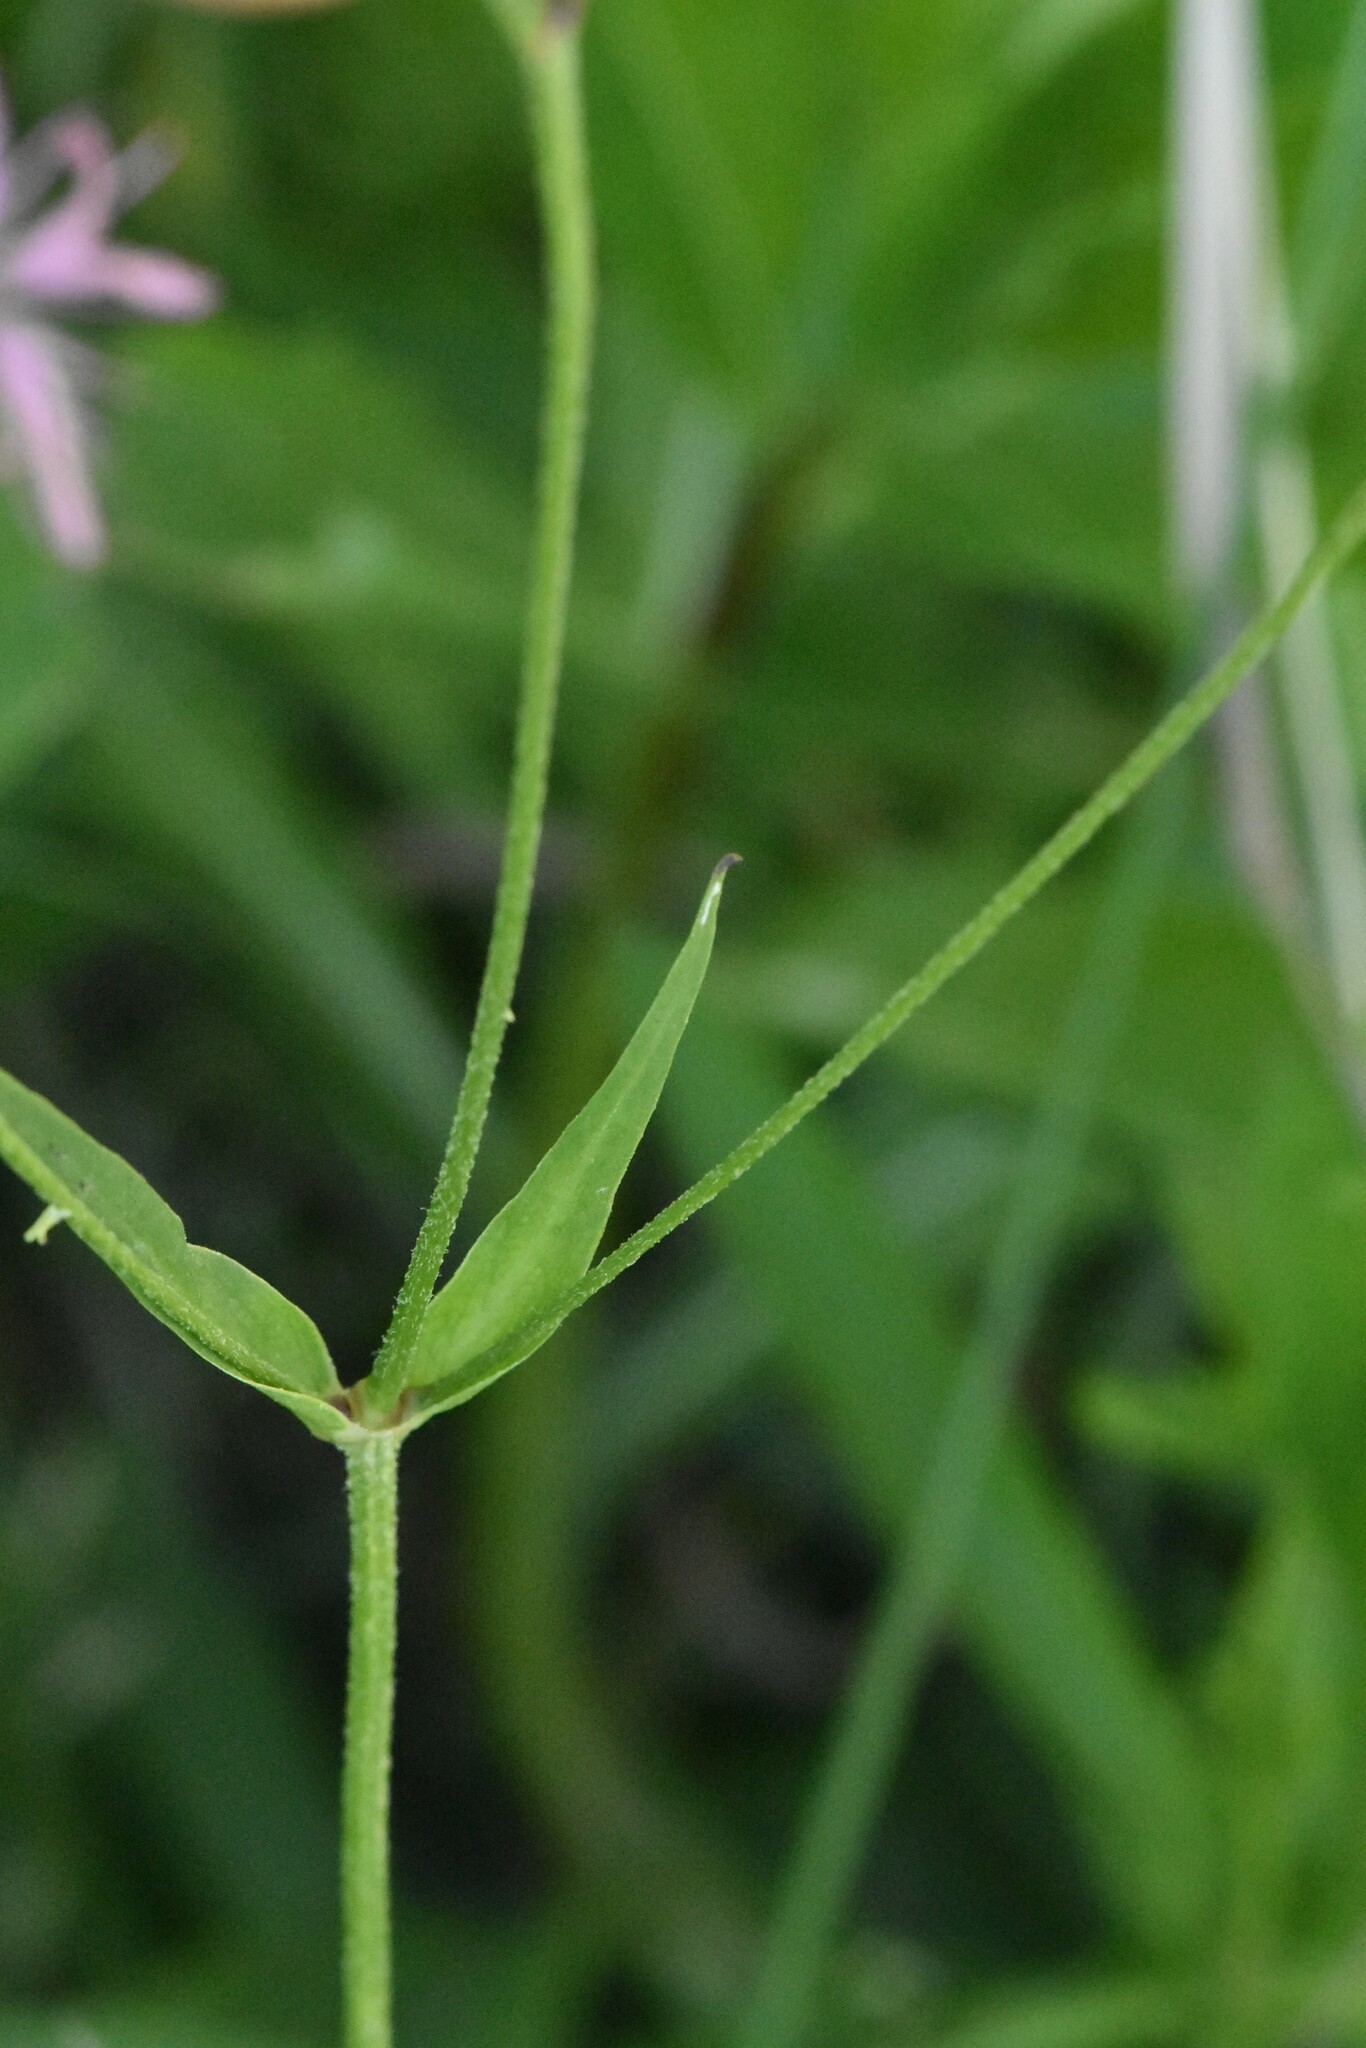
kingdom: Plantae
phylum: Tracheophyta
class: Magnoliopsida
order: Caryophyllales
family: Caryophyllaceae
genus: Silene
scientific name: Silene flos-cuculi
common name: Ragged-robin
